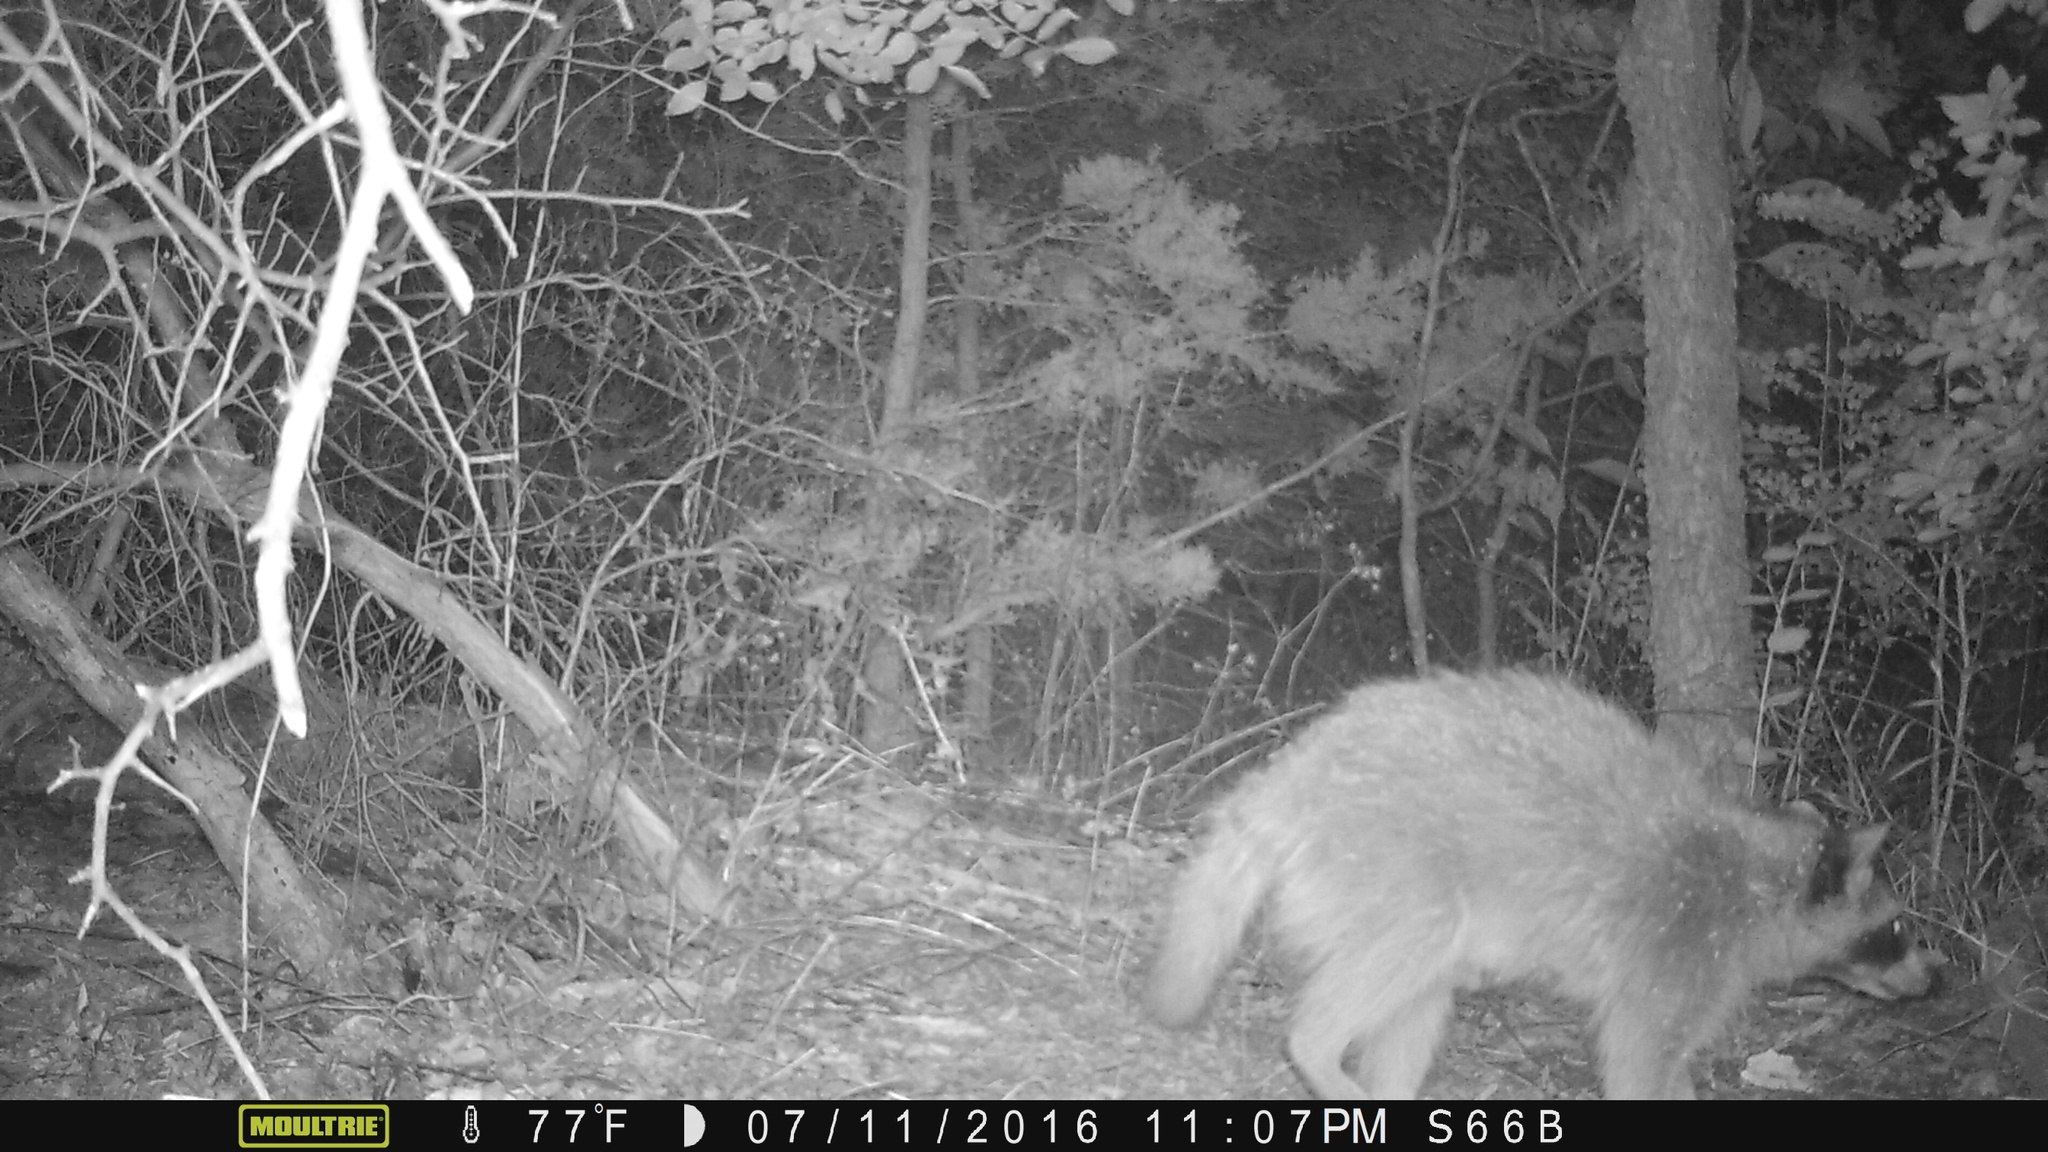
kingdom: Animalia
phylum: Chordata
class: Mammalia
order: Carnivora
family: Procyonidae
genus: Procyon
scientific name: Procyon lotor
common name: Raccoon
